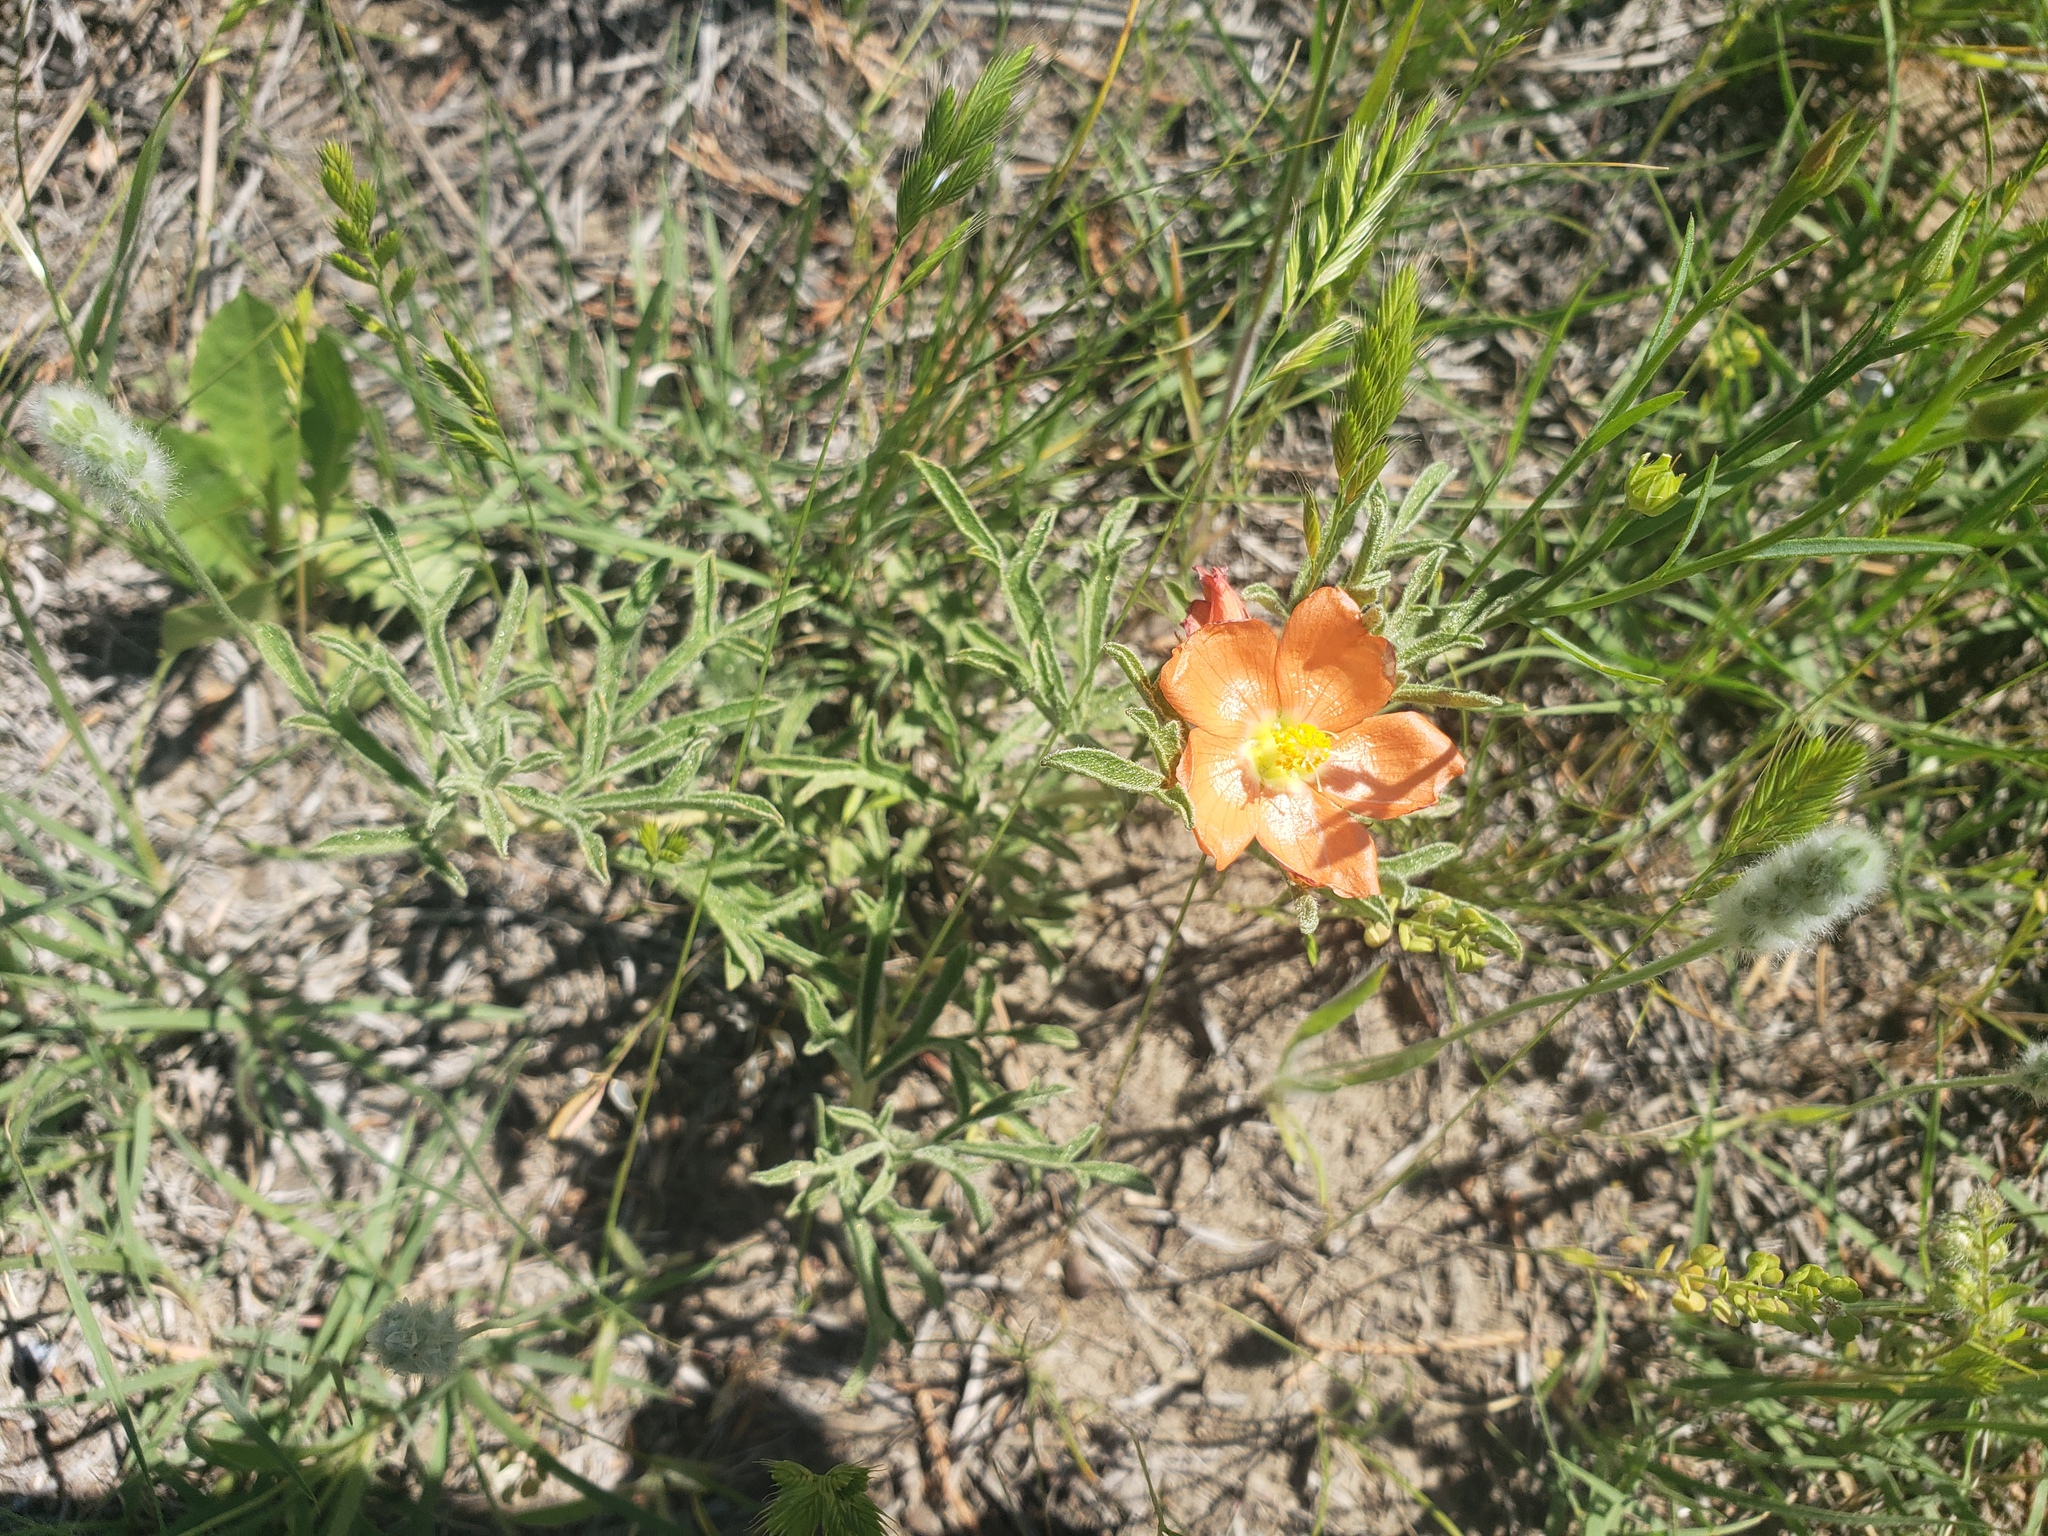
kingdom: Plantae
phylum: Tracheophyta
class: Magnoliopsida
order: Malvales
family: Malvaceae
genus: Sphaeralcea
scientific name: Sphaeralcea coccinea
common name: Moss-rose
